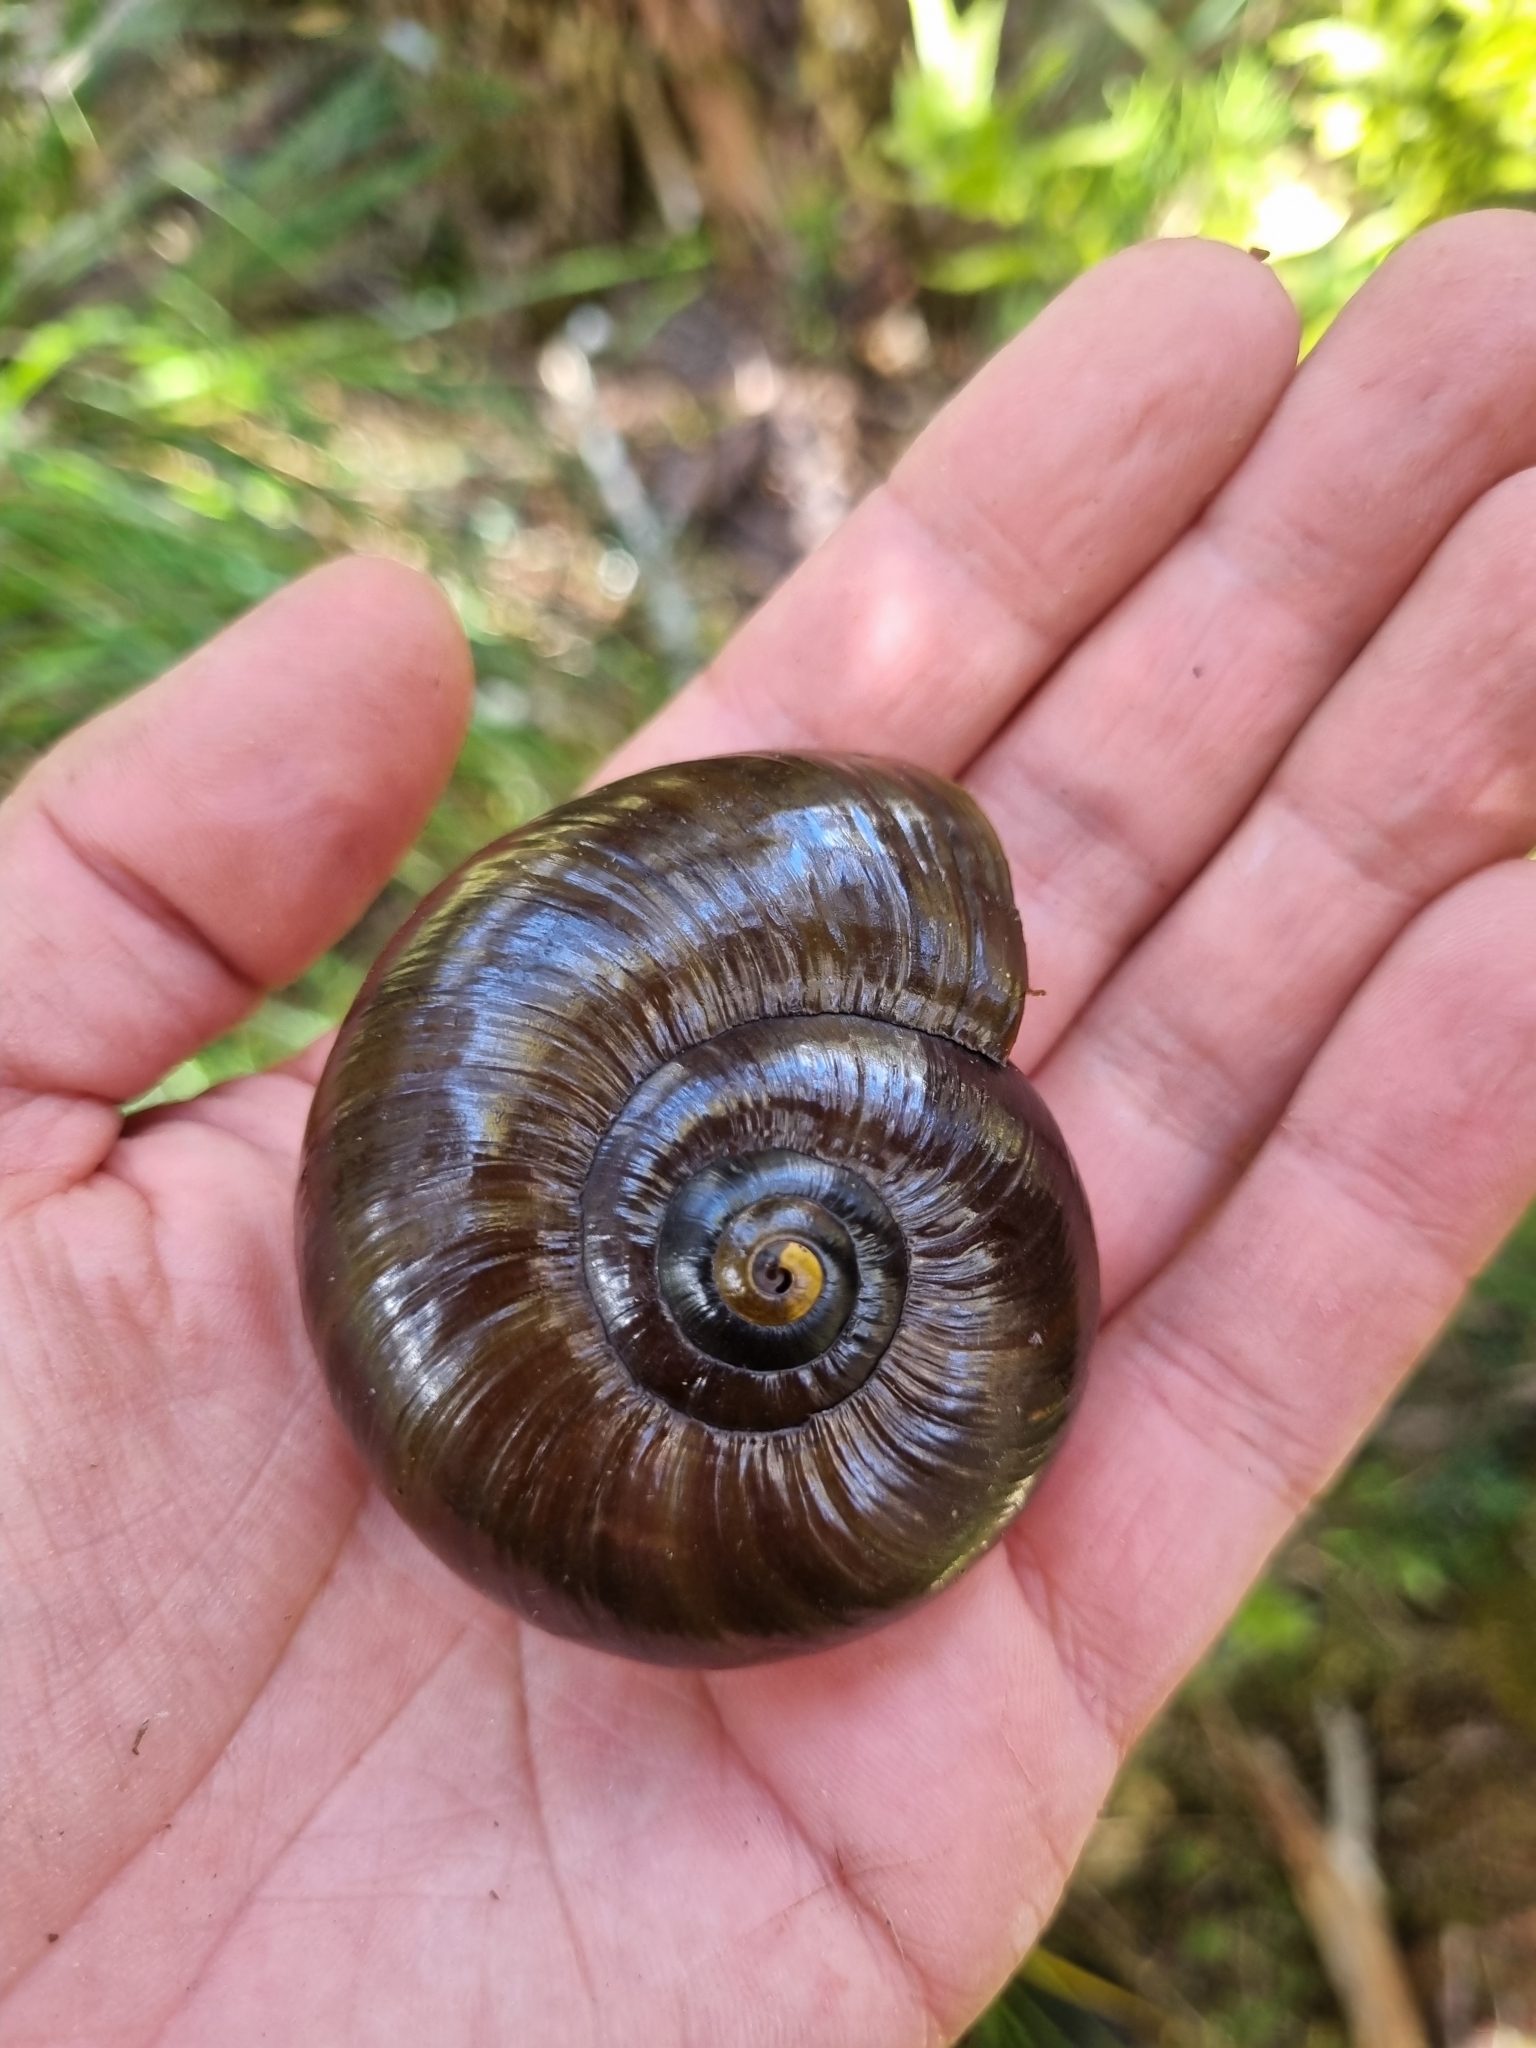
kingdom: Animalia
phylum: Mollusca
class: Gastropoda
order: Stylommatophora
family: Rhytididae
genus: Powelliphanta
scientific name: Powelliphanta superba
